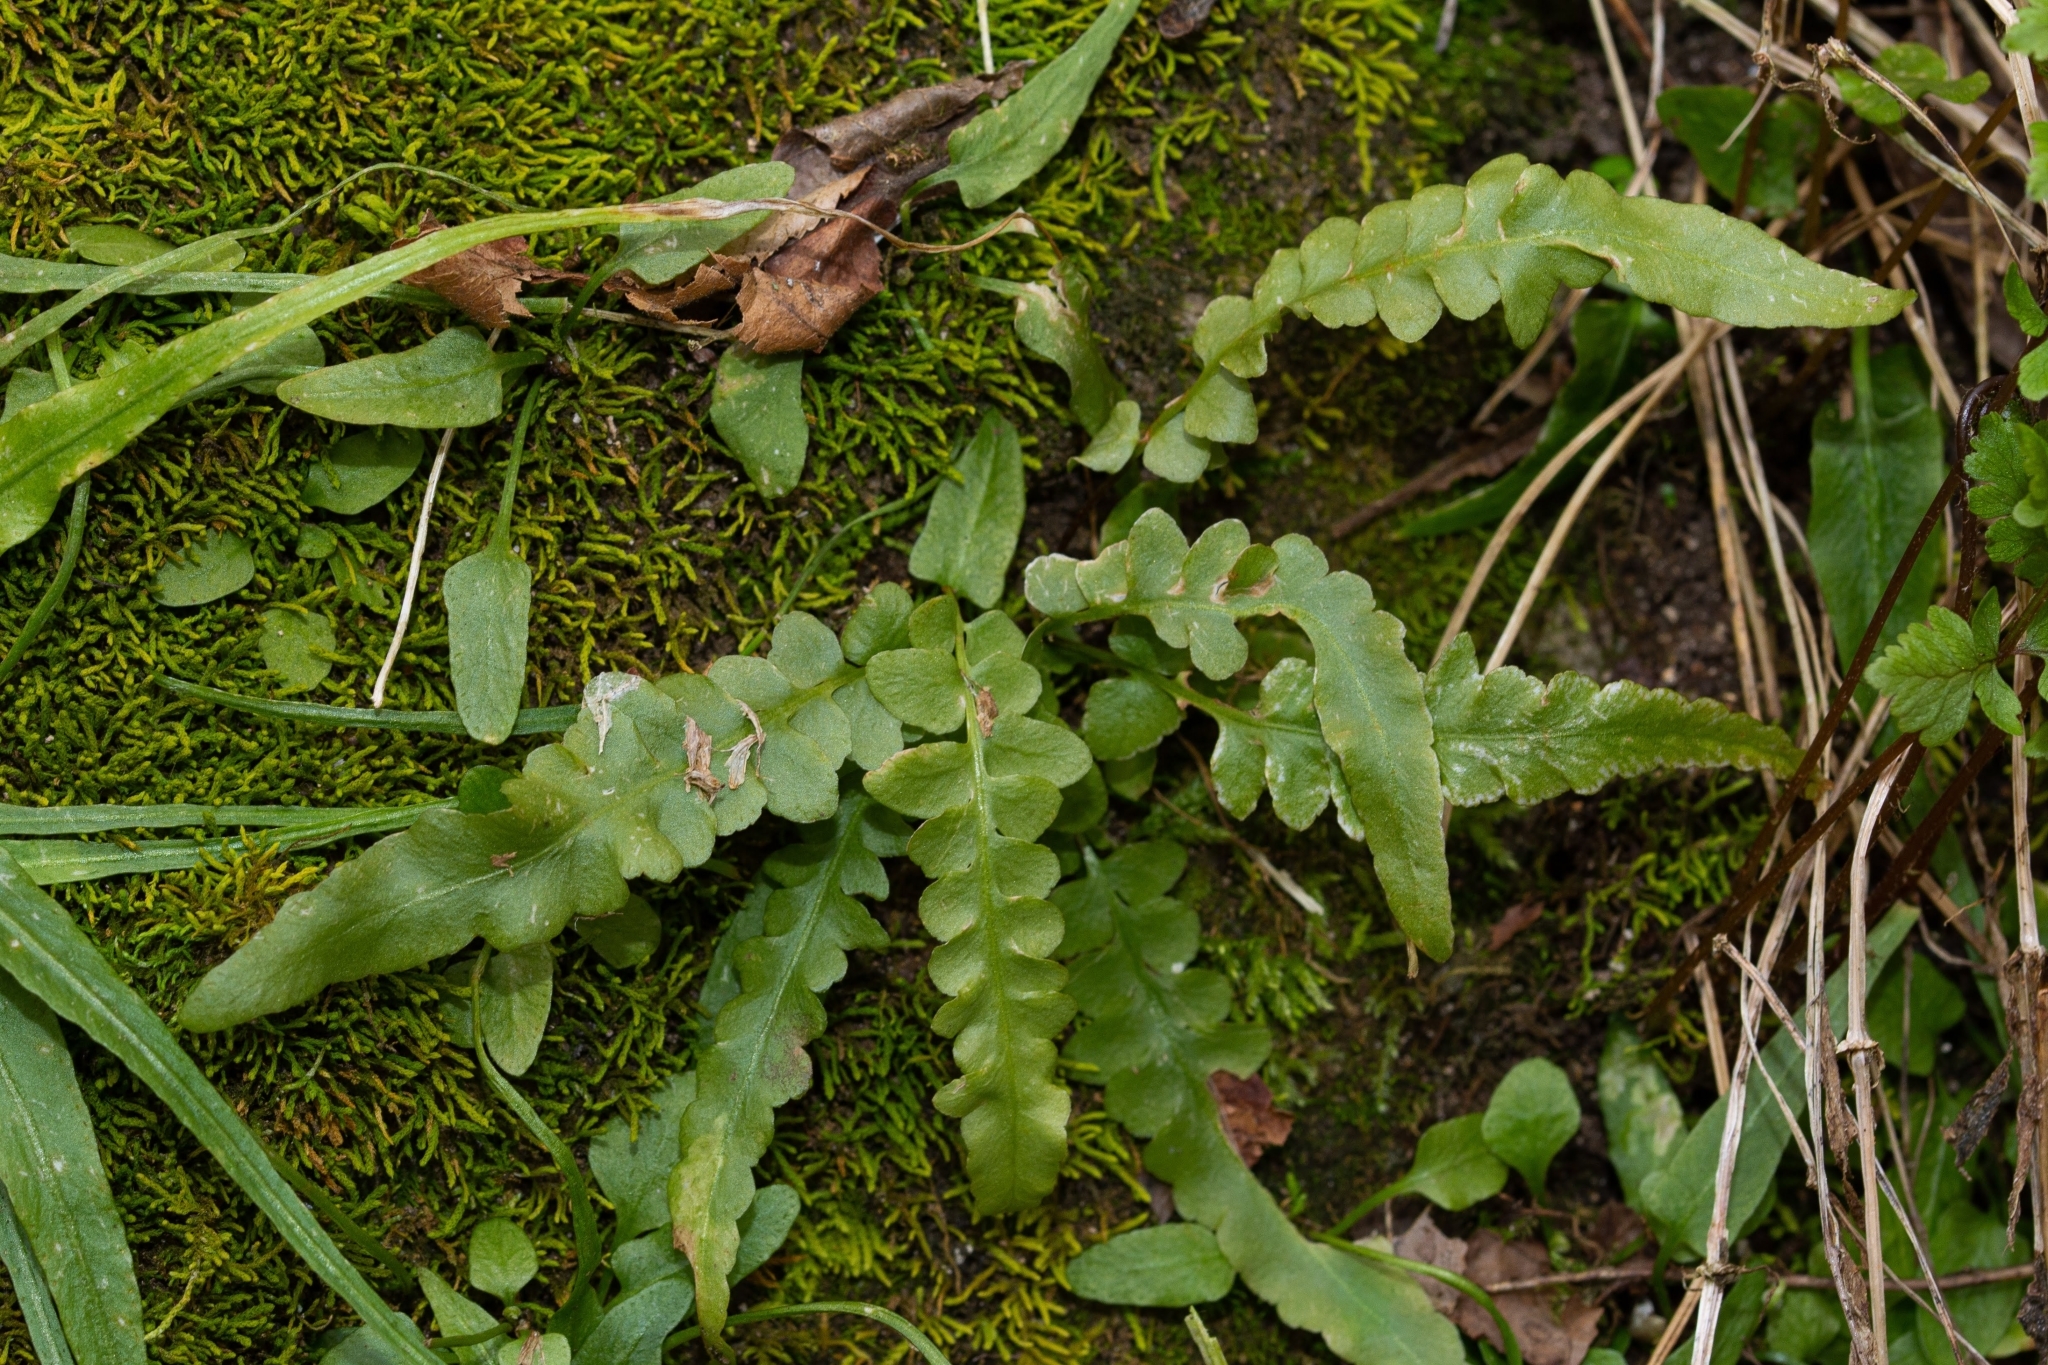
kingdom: Plantae
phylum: Tracheophyta
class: Polypodiopsida
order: Polypodiales
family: Aspleniaceae
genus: Asplenium
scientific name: Asplenium ebenoides
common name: Dragon-tail fern
